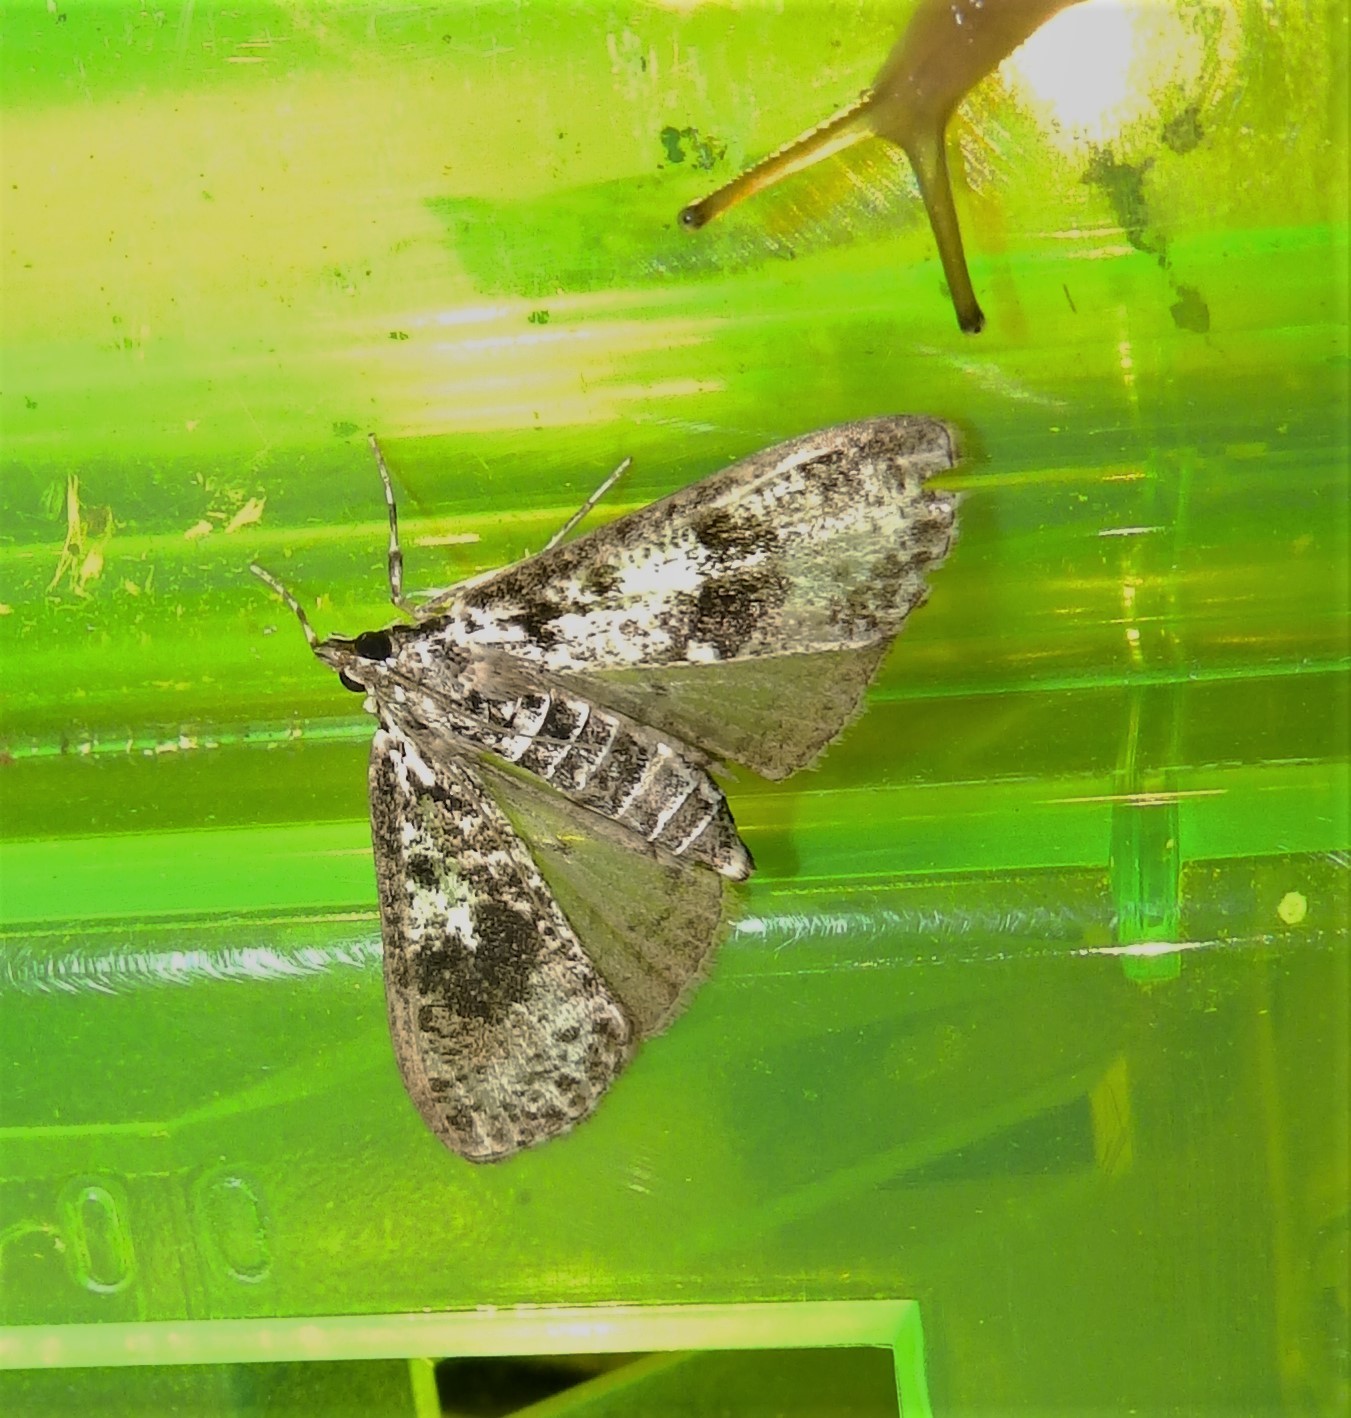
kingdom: Animalia
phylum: Arthropoda
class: Insecta
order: Lepidoptera
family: Crambidae
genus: Palpita
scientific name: Palpita magniferalis
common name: Splendid palpita moth
